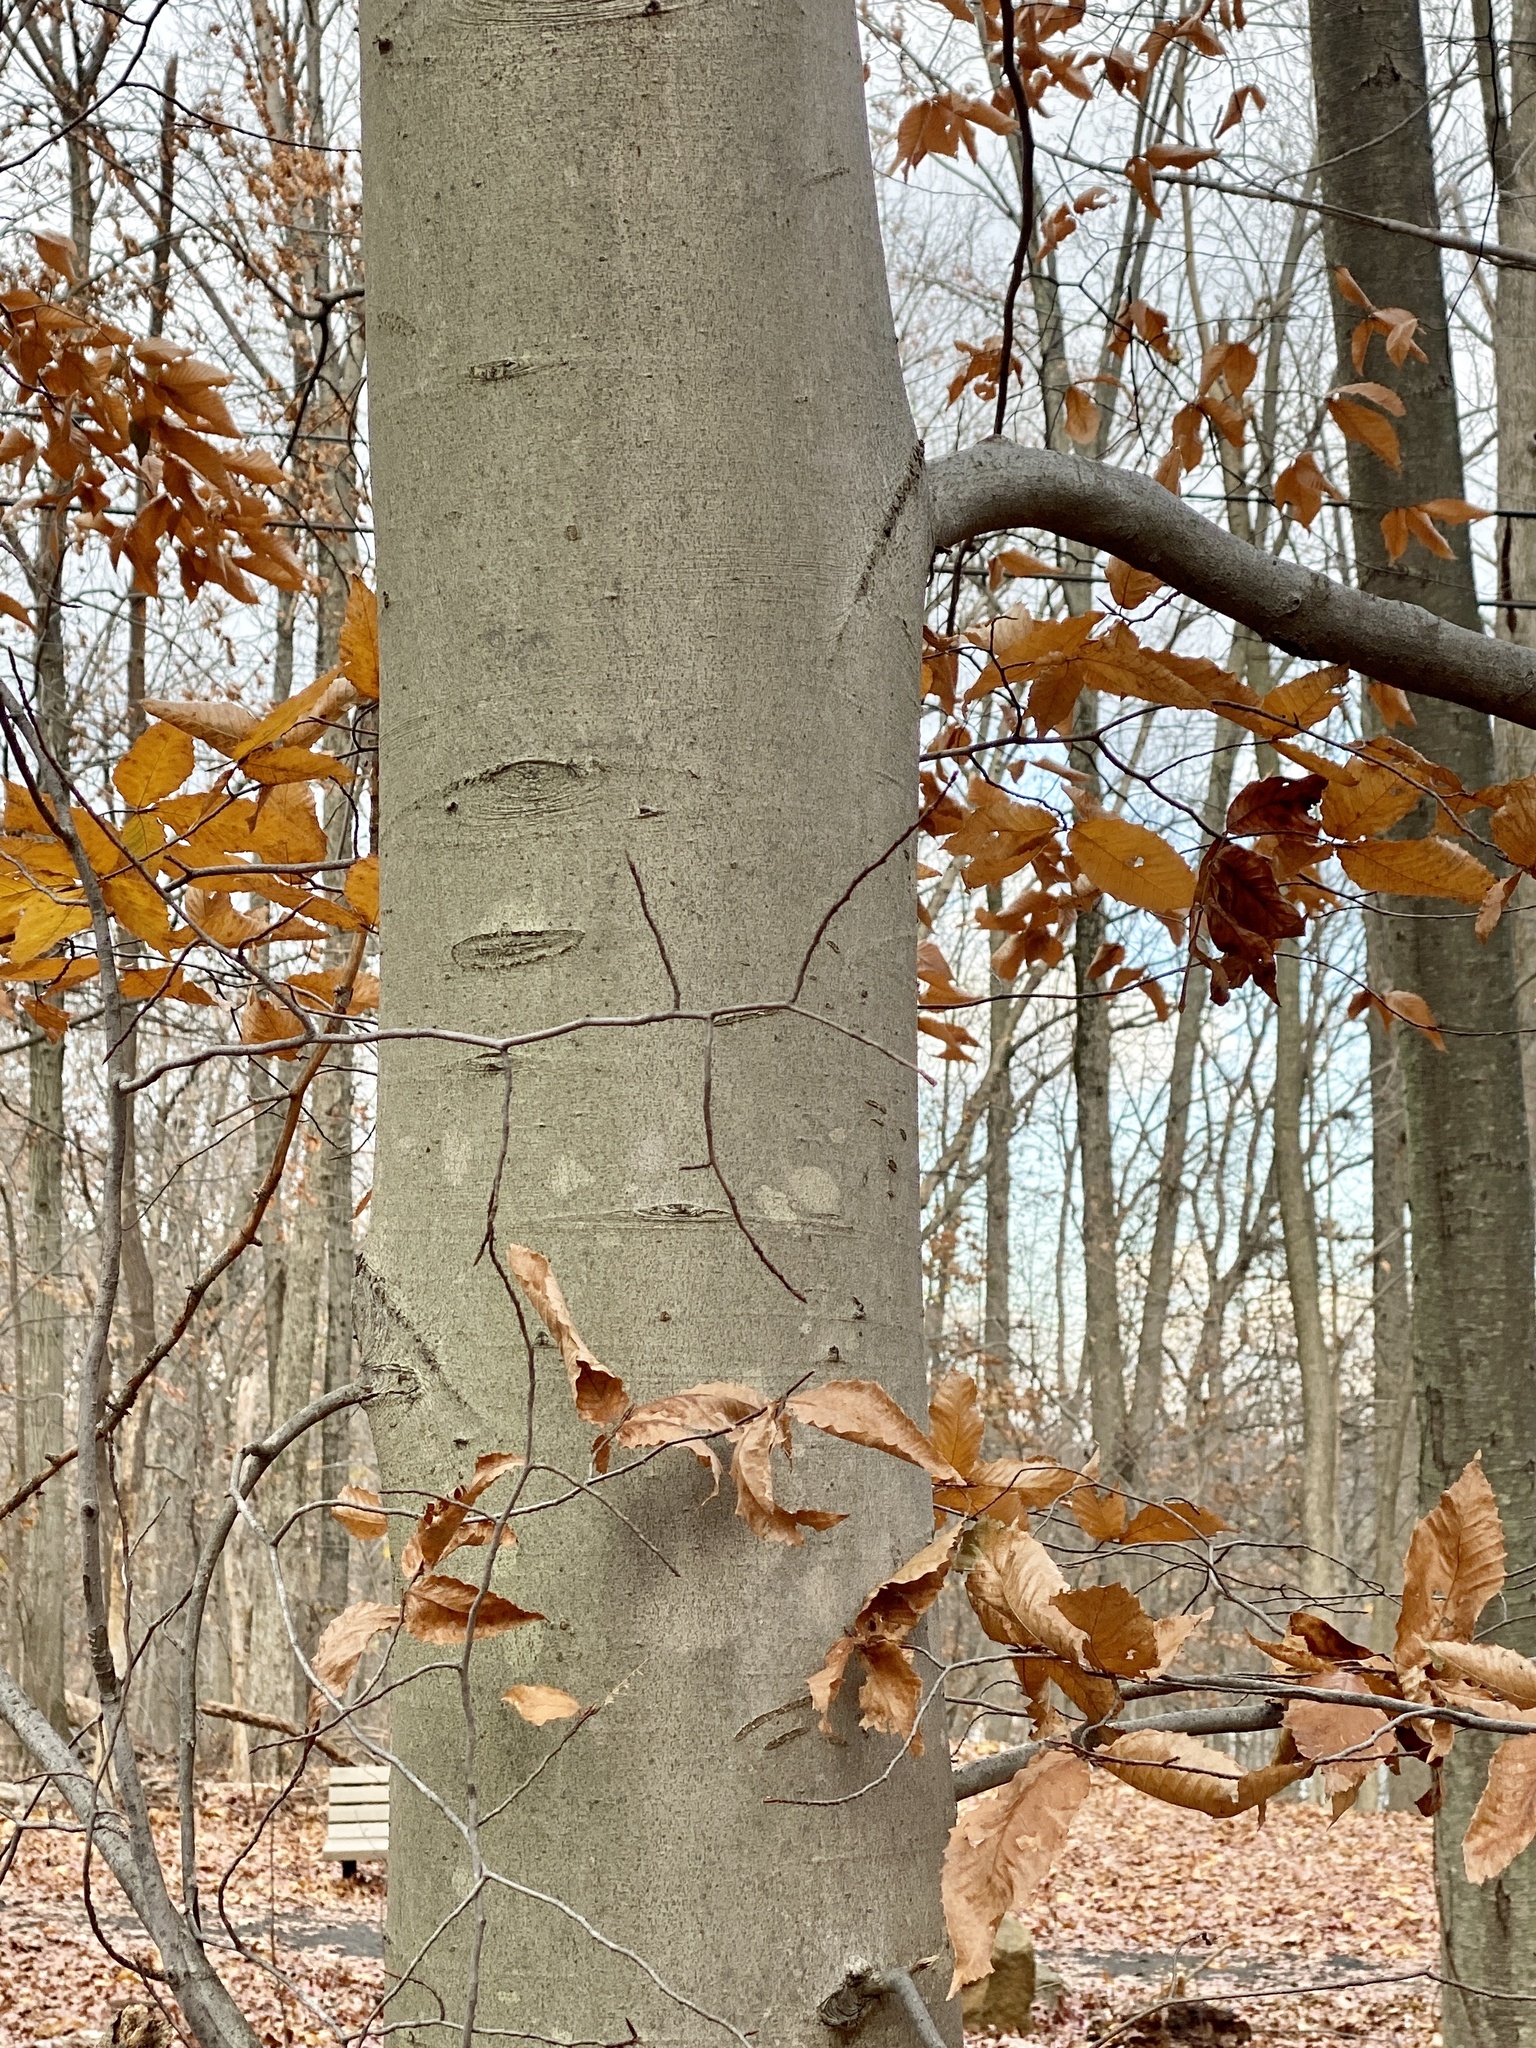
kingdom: Plantae
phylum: Tracheophyta
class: Magnoliopsida
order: Fagales
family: Fagaceae
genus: Fagus
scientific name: Fagus grandifolia
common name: American beech
